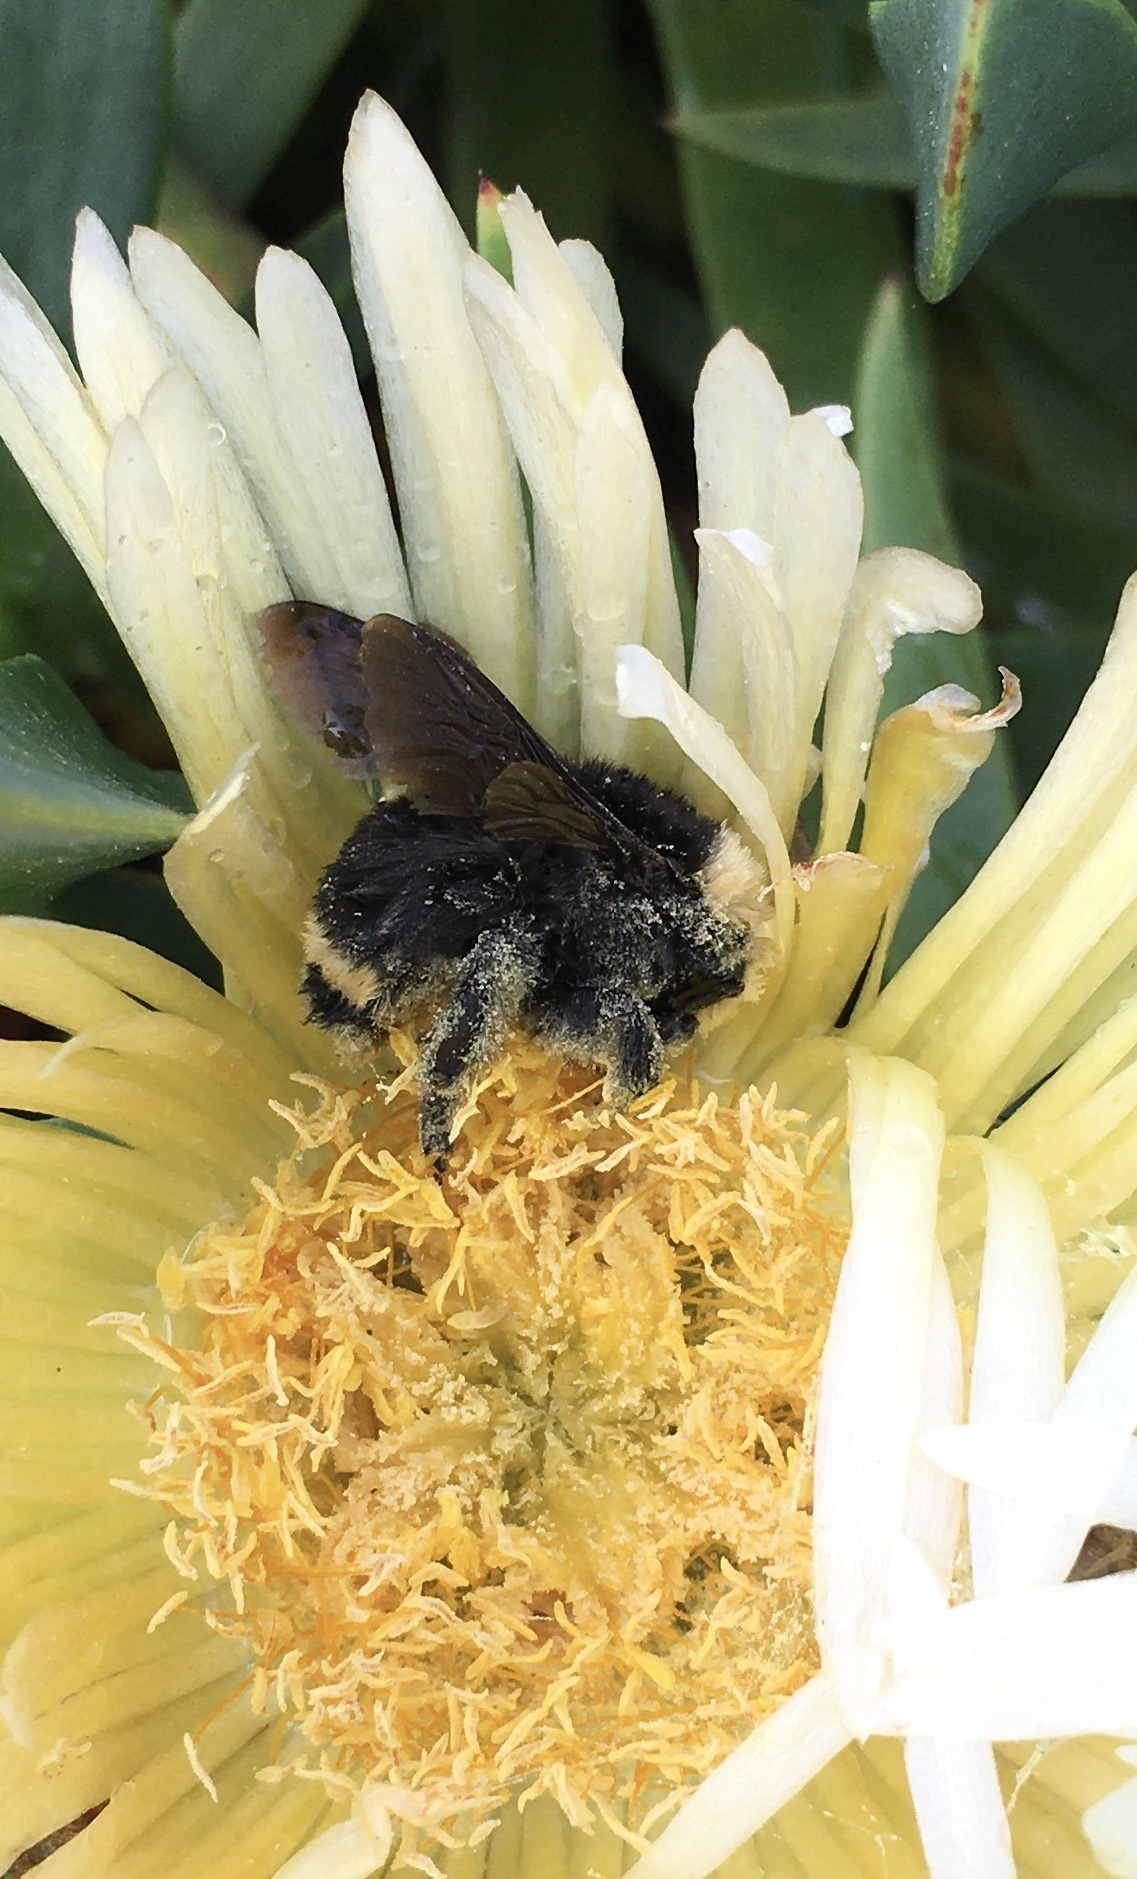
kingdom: Animalia
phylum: Arthropoda
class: Insecta
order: Hymenoptera
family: Apidae
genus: Bombus
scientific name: Bombus vosnesenskii
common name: Vosnesensky bumble bee
